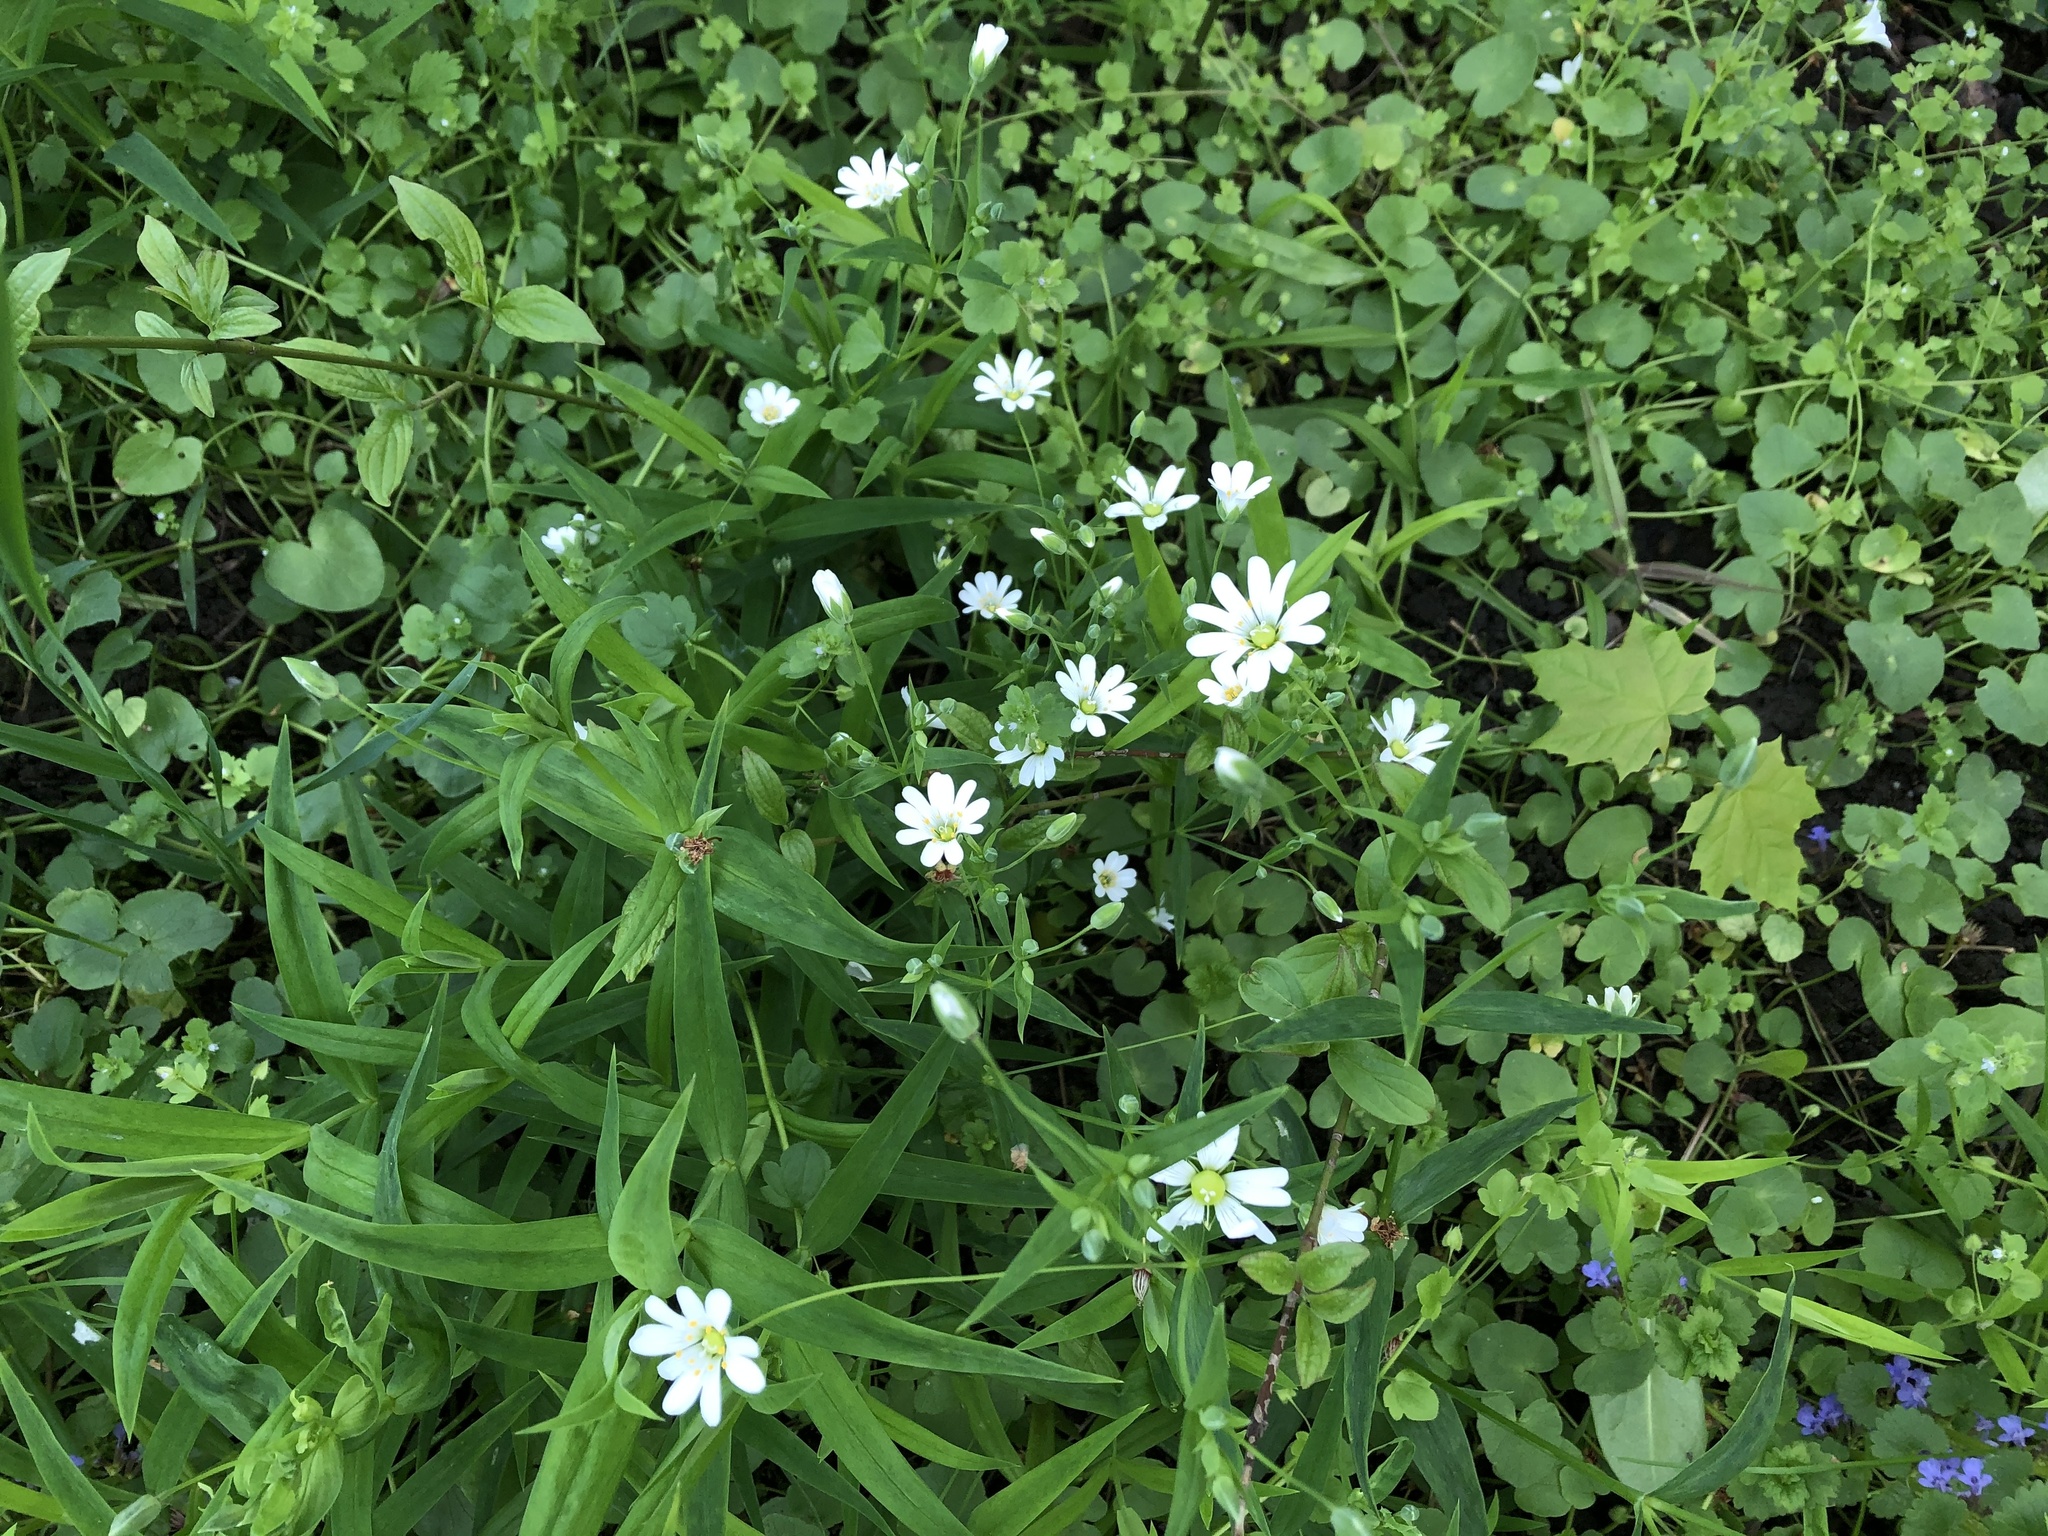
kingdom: Plantae
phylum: Tracheophyta
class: Magnoliopsida
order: Caryophyllales
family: Caryophyllaceae
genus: Rabelera
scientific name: Rabelera holostea
